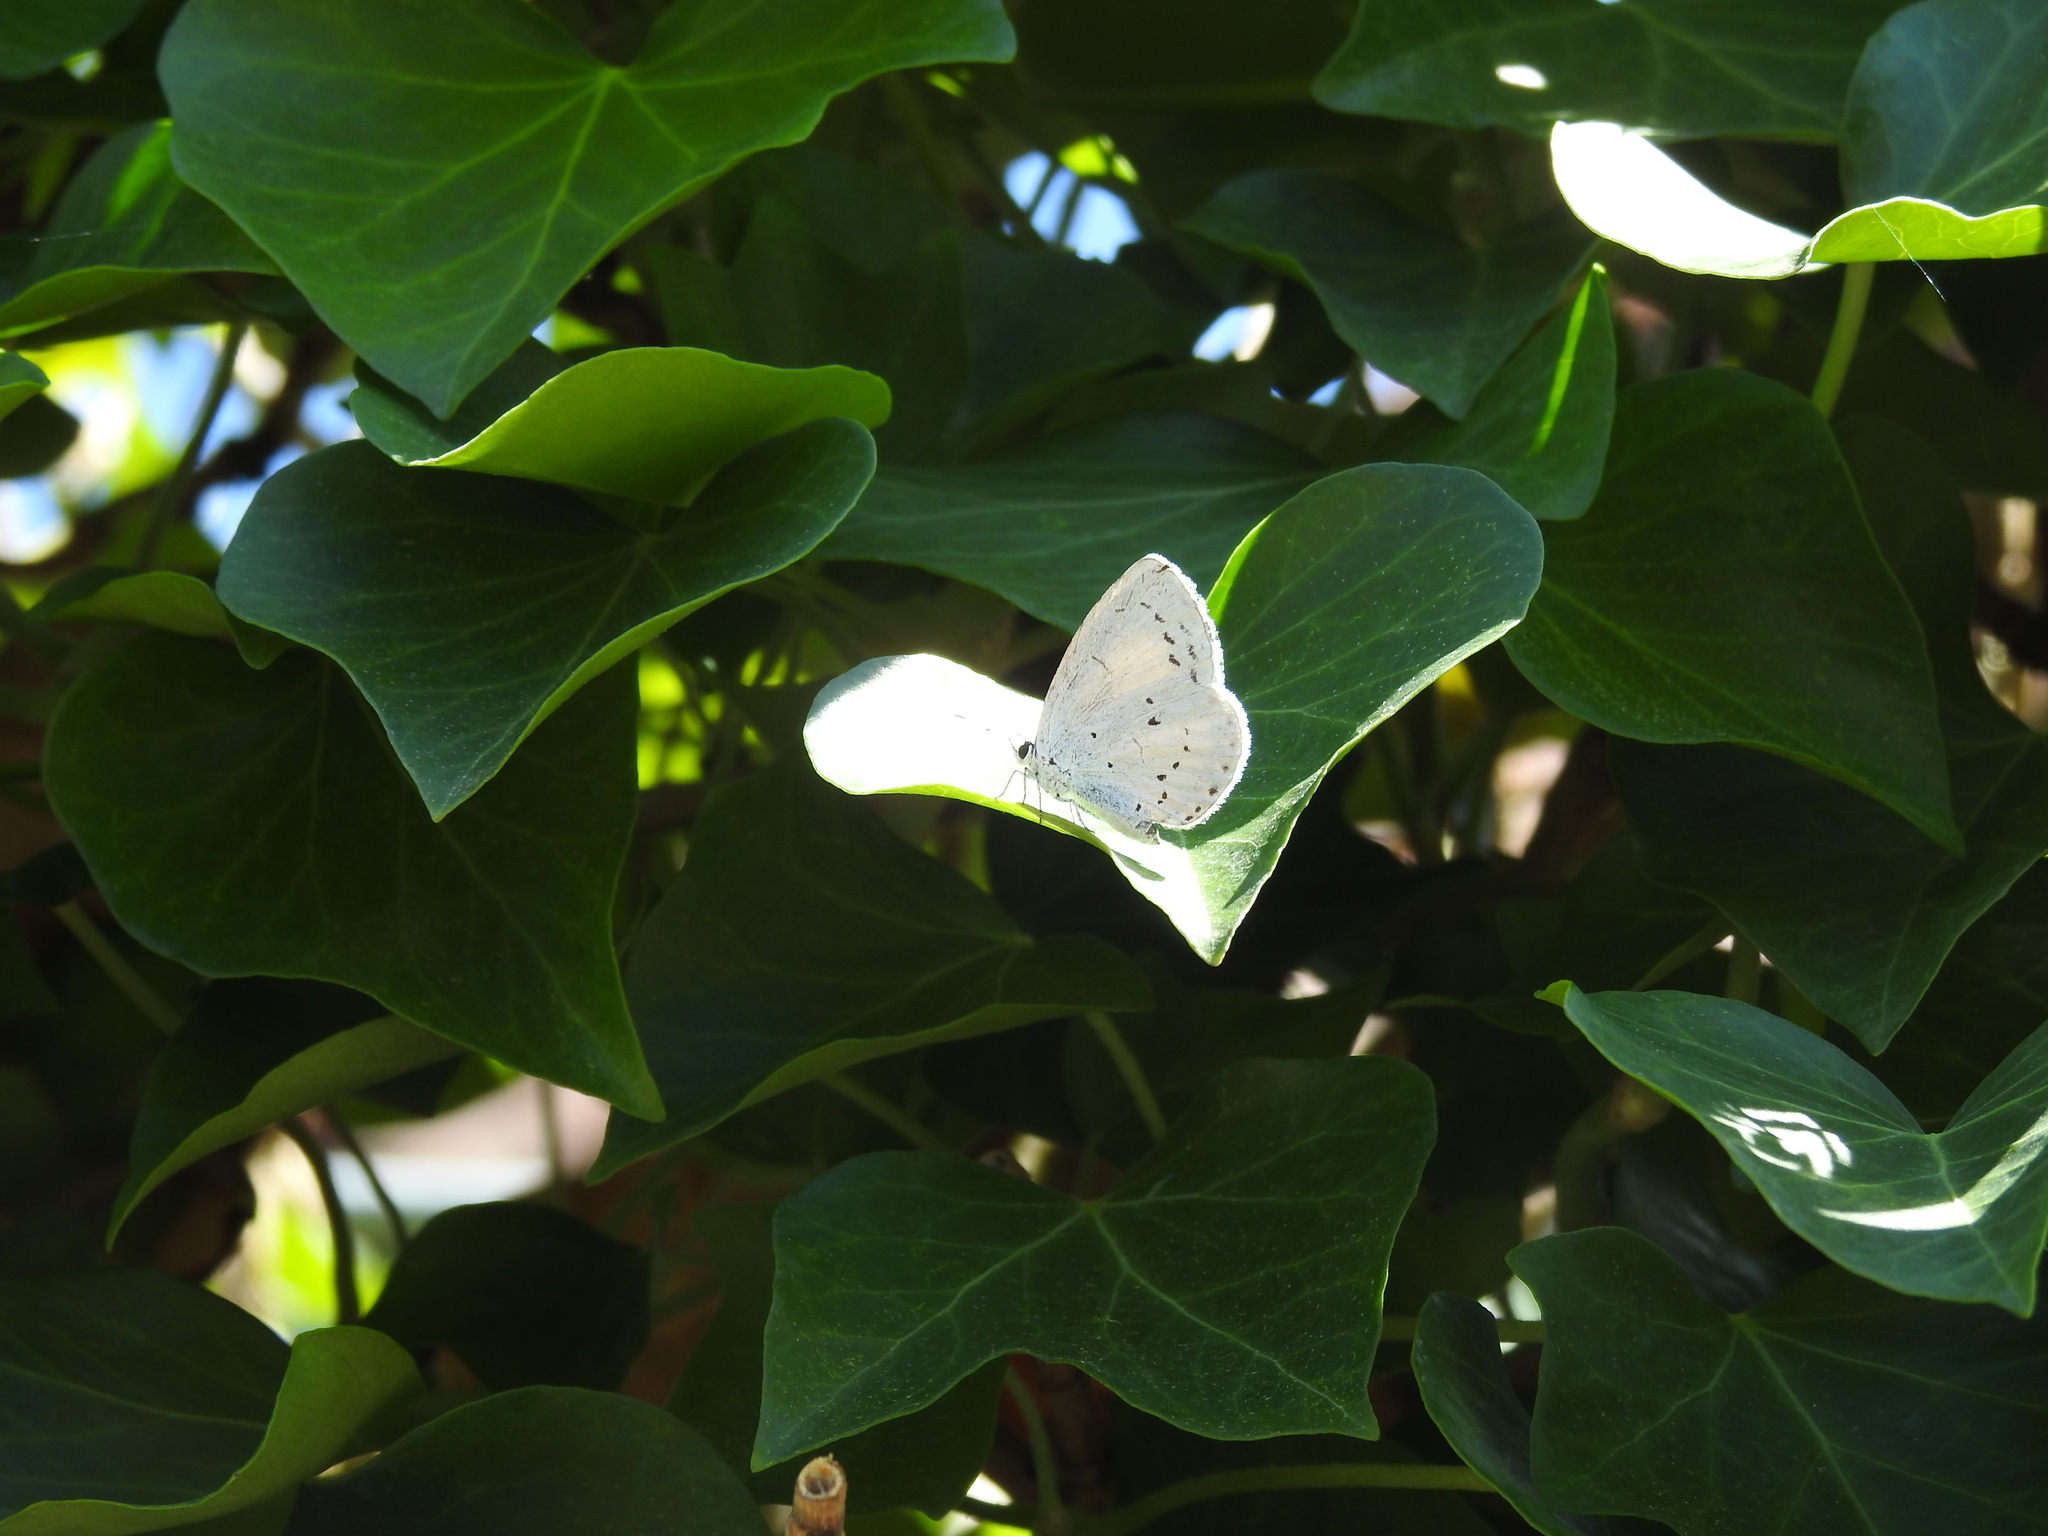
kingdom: Animalia
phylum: Arthropoda
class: Insecta
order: Lepidoptera
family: Lycaenidae
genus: Celastrina
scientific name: Celastrina argiolus
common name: Holly blue
